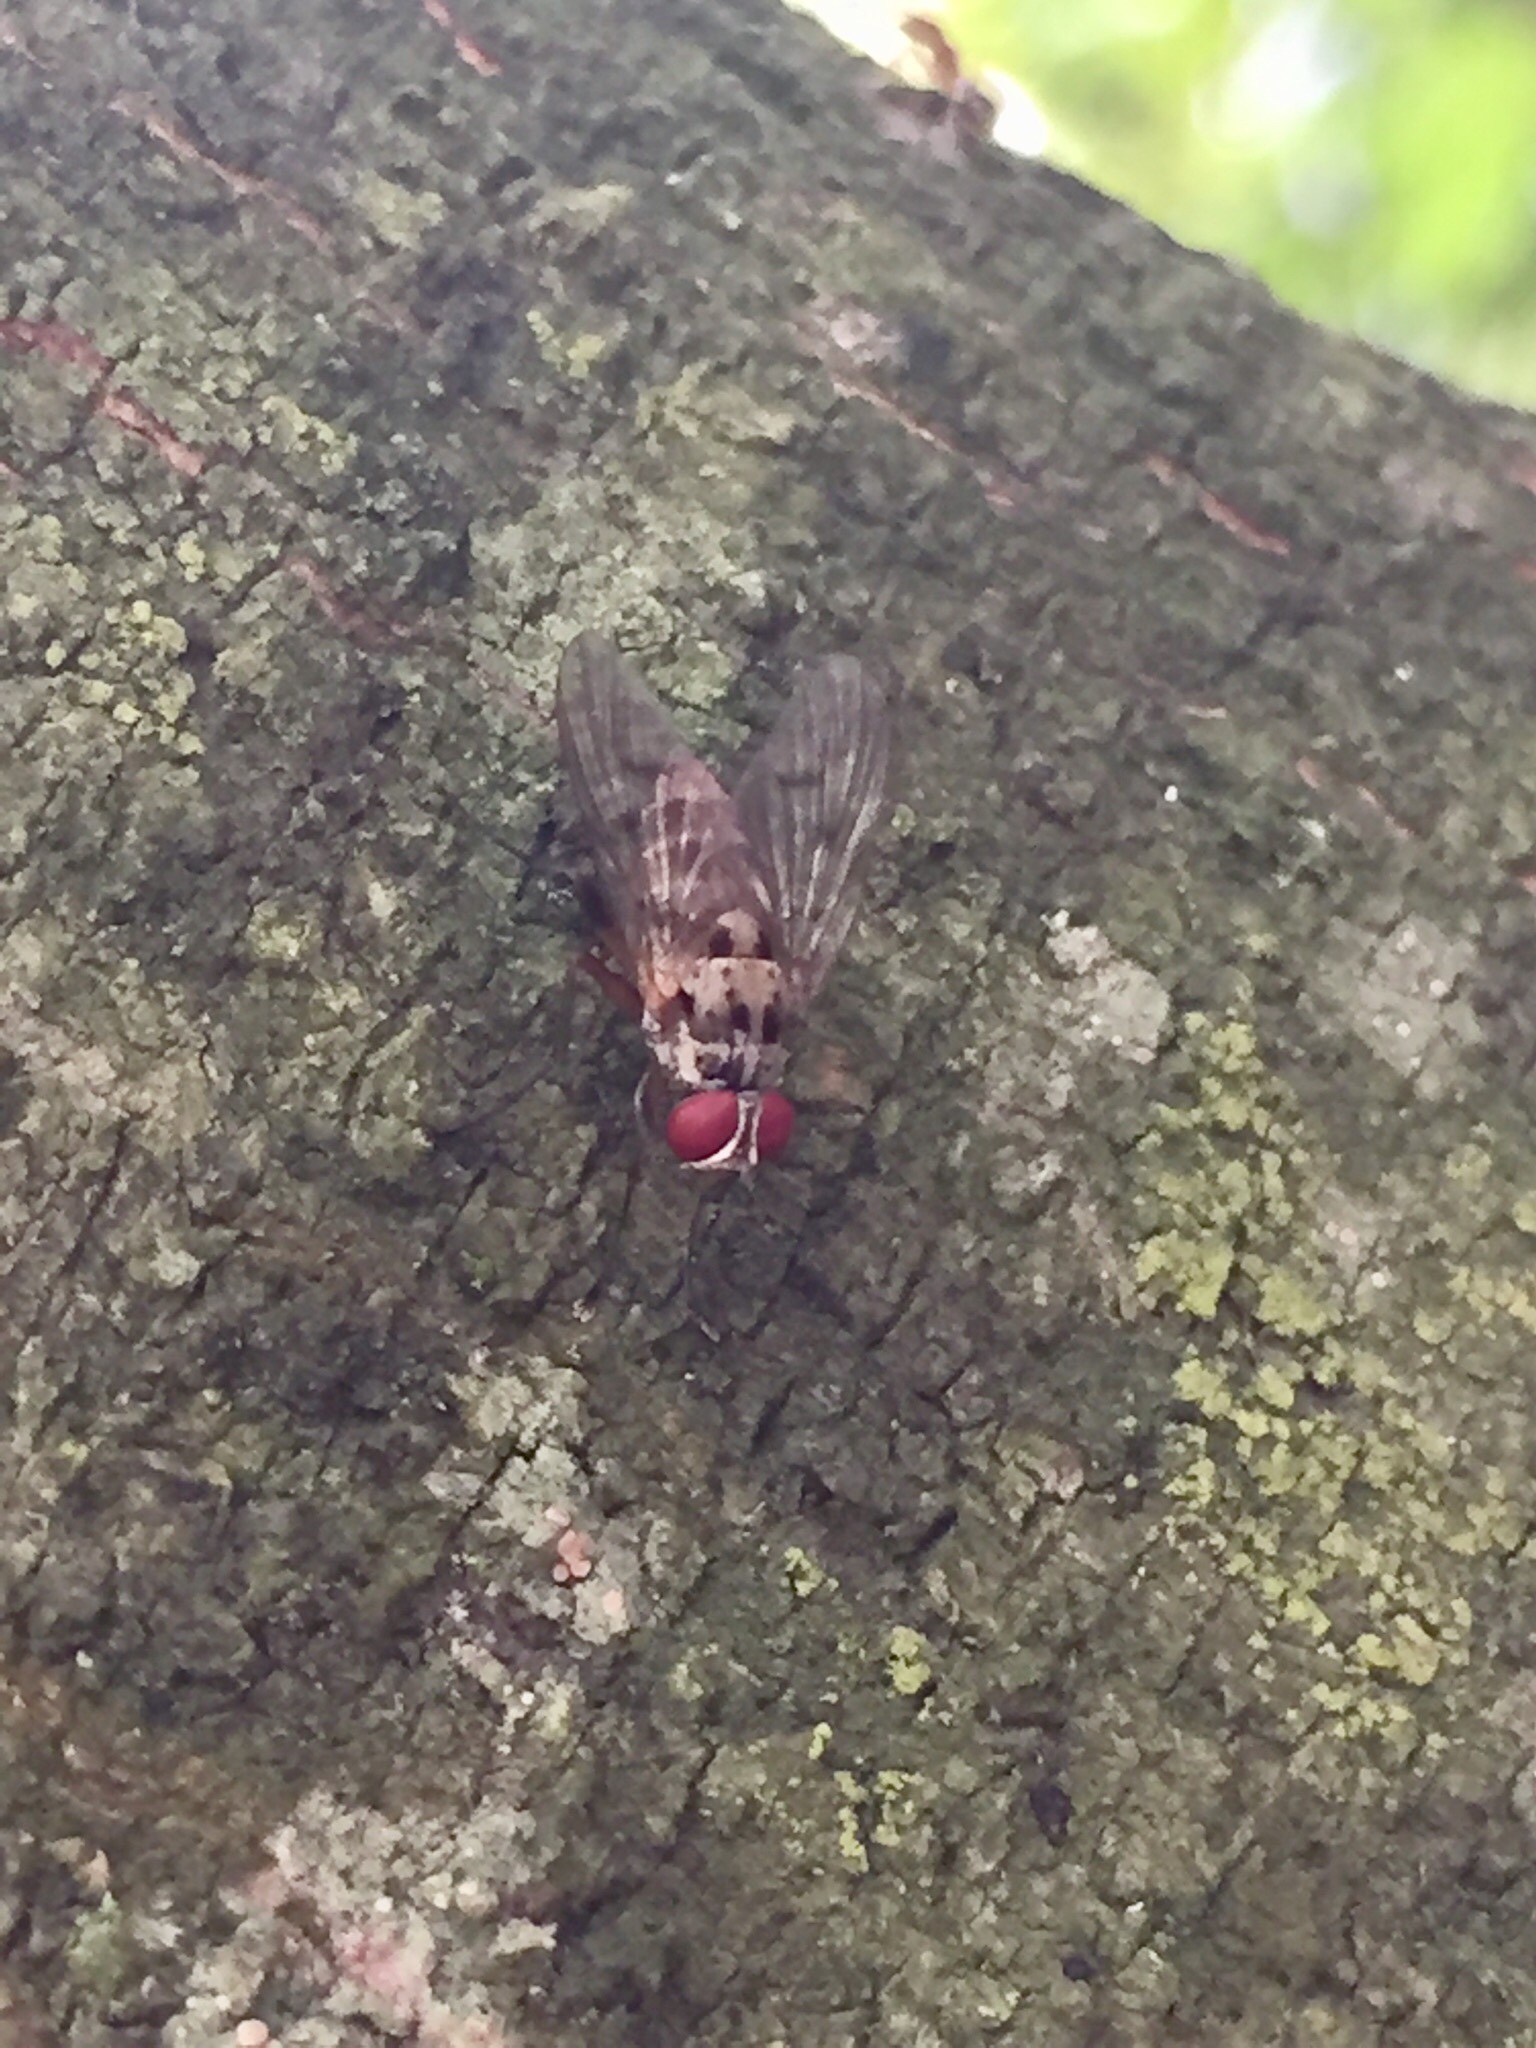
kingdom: Animalia
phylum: Arthropoda
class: Insecta
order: Diptera
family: Muscidae
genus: Helina
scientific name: Helina sexmaculata
